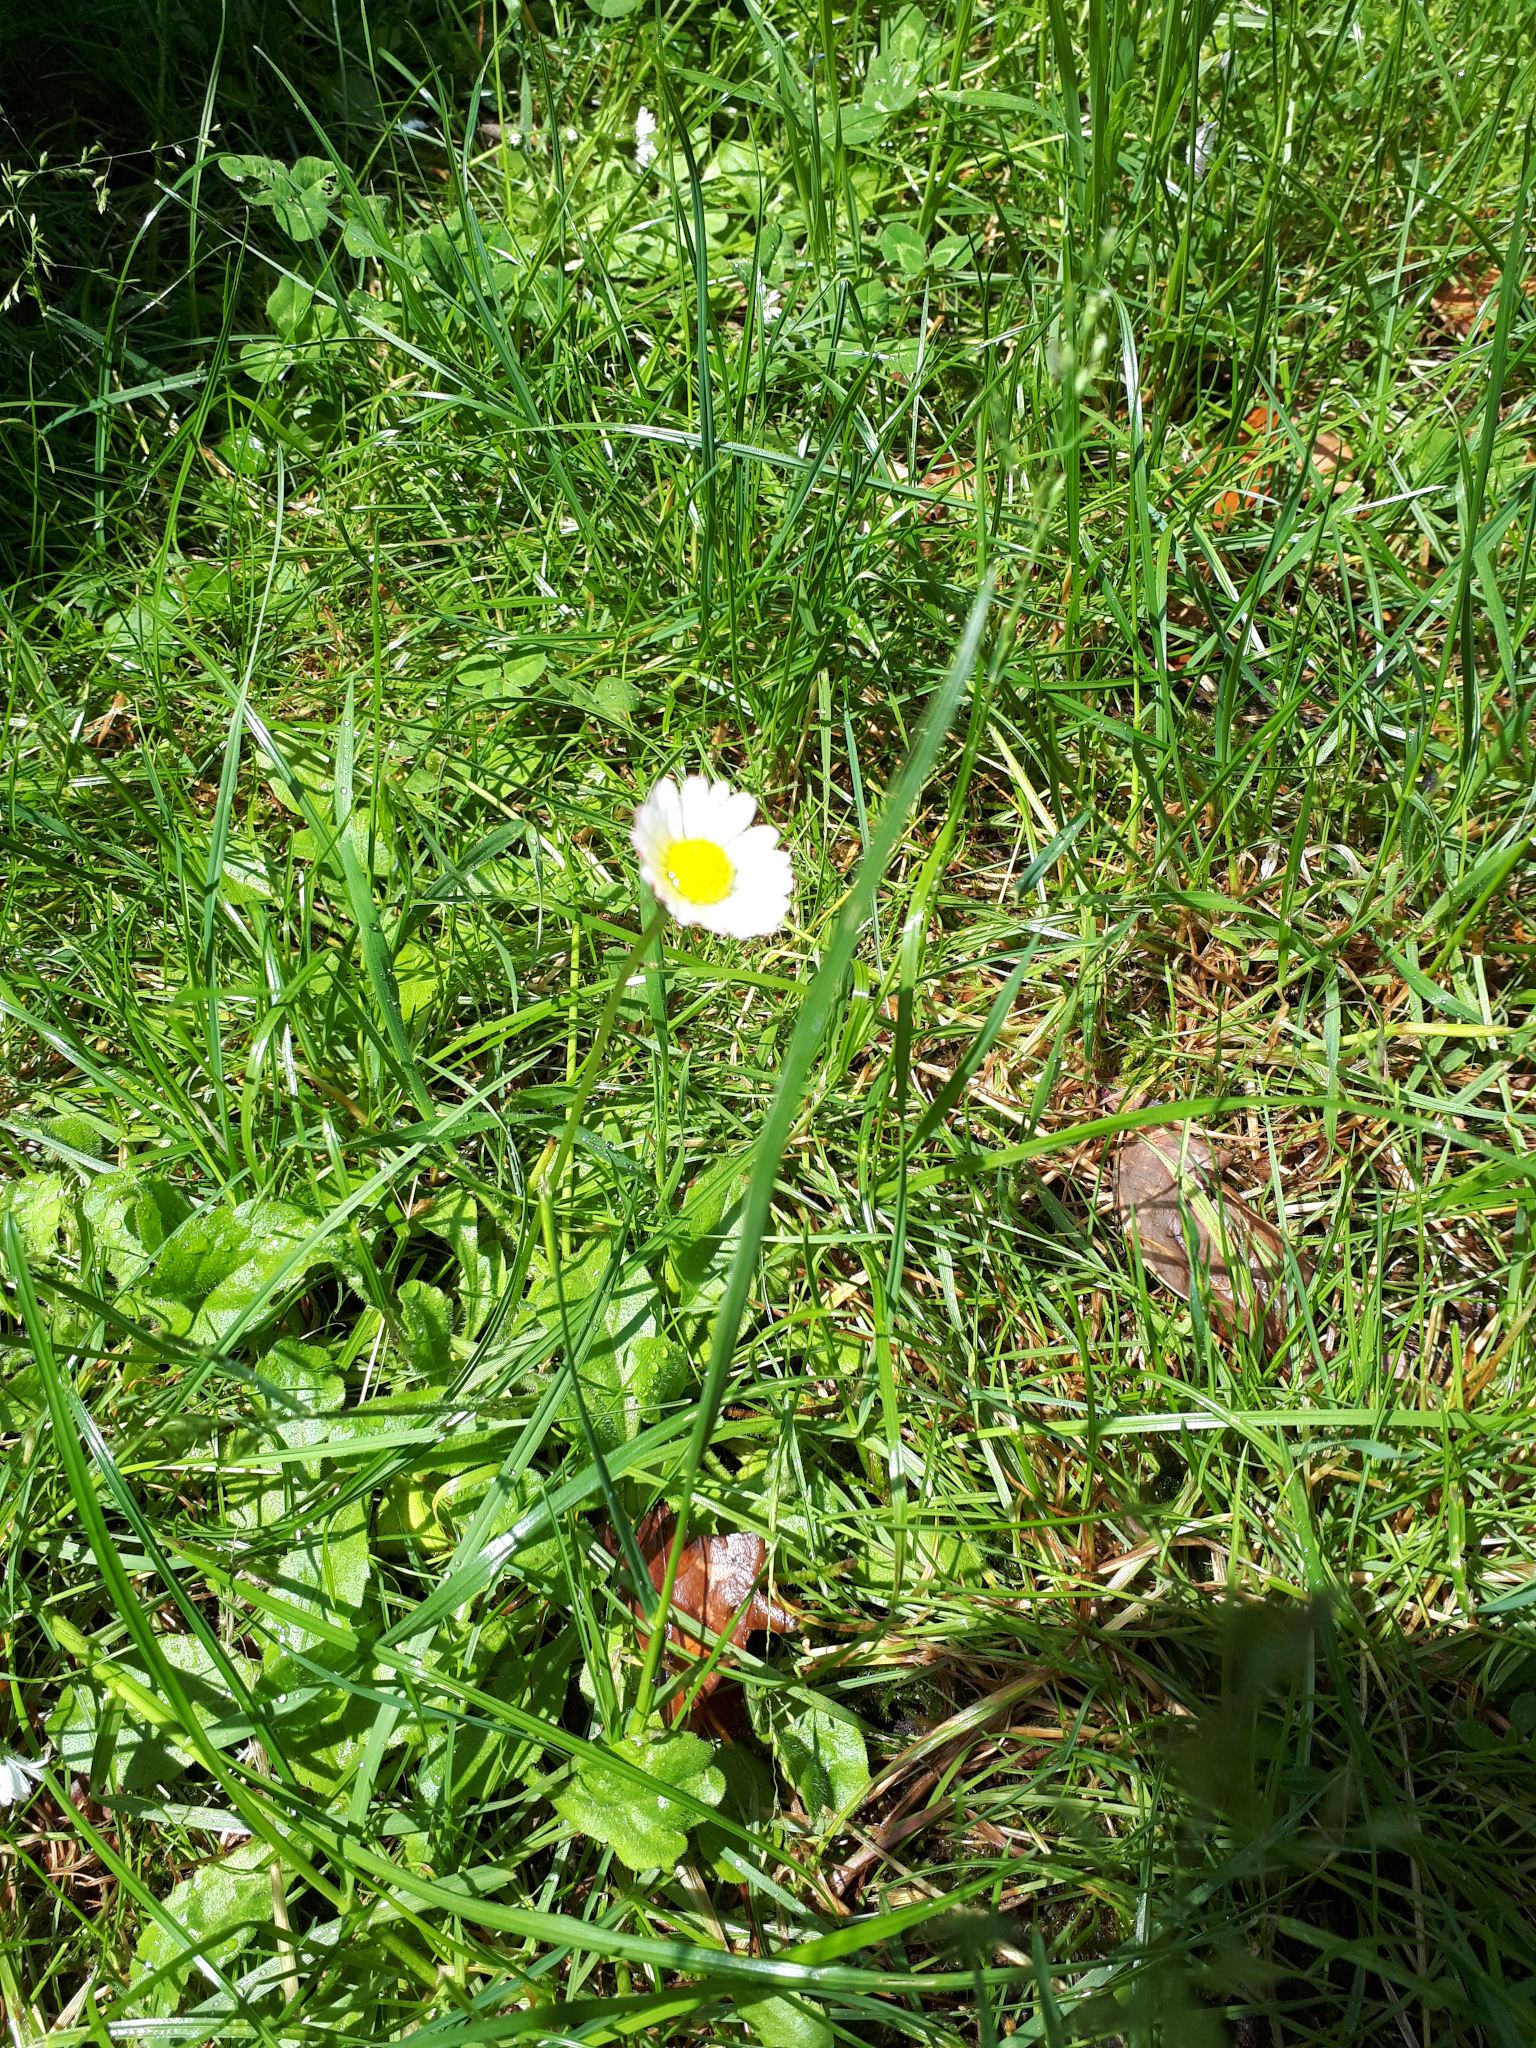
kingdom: Plantae
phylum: Tracheophyta
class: Magnoliopsida
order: Asterales
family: Asteraceae
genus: Bellis
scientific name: Bellis perennis
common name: Lawndaisy
